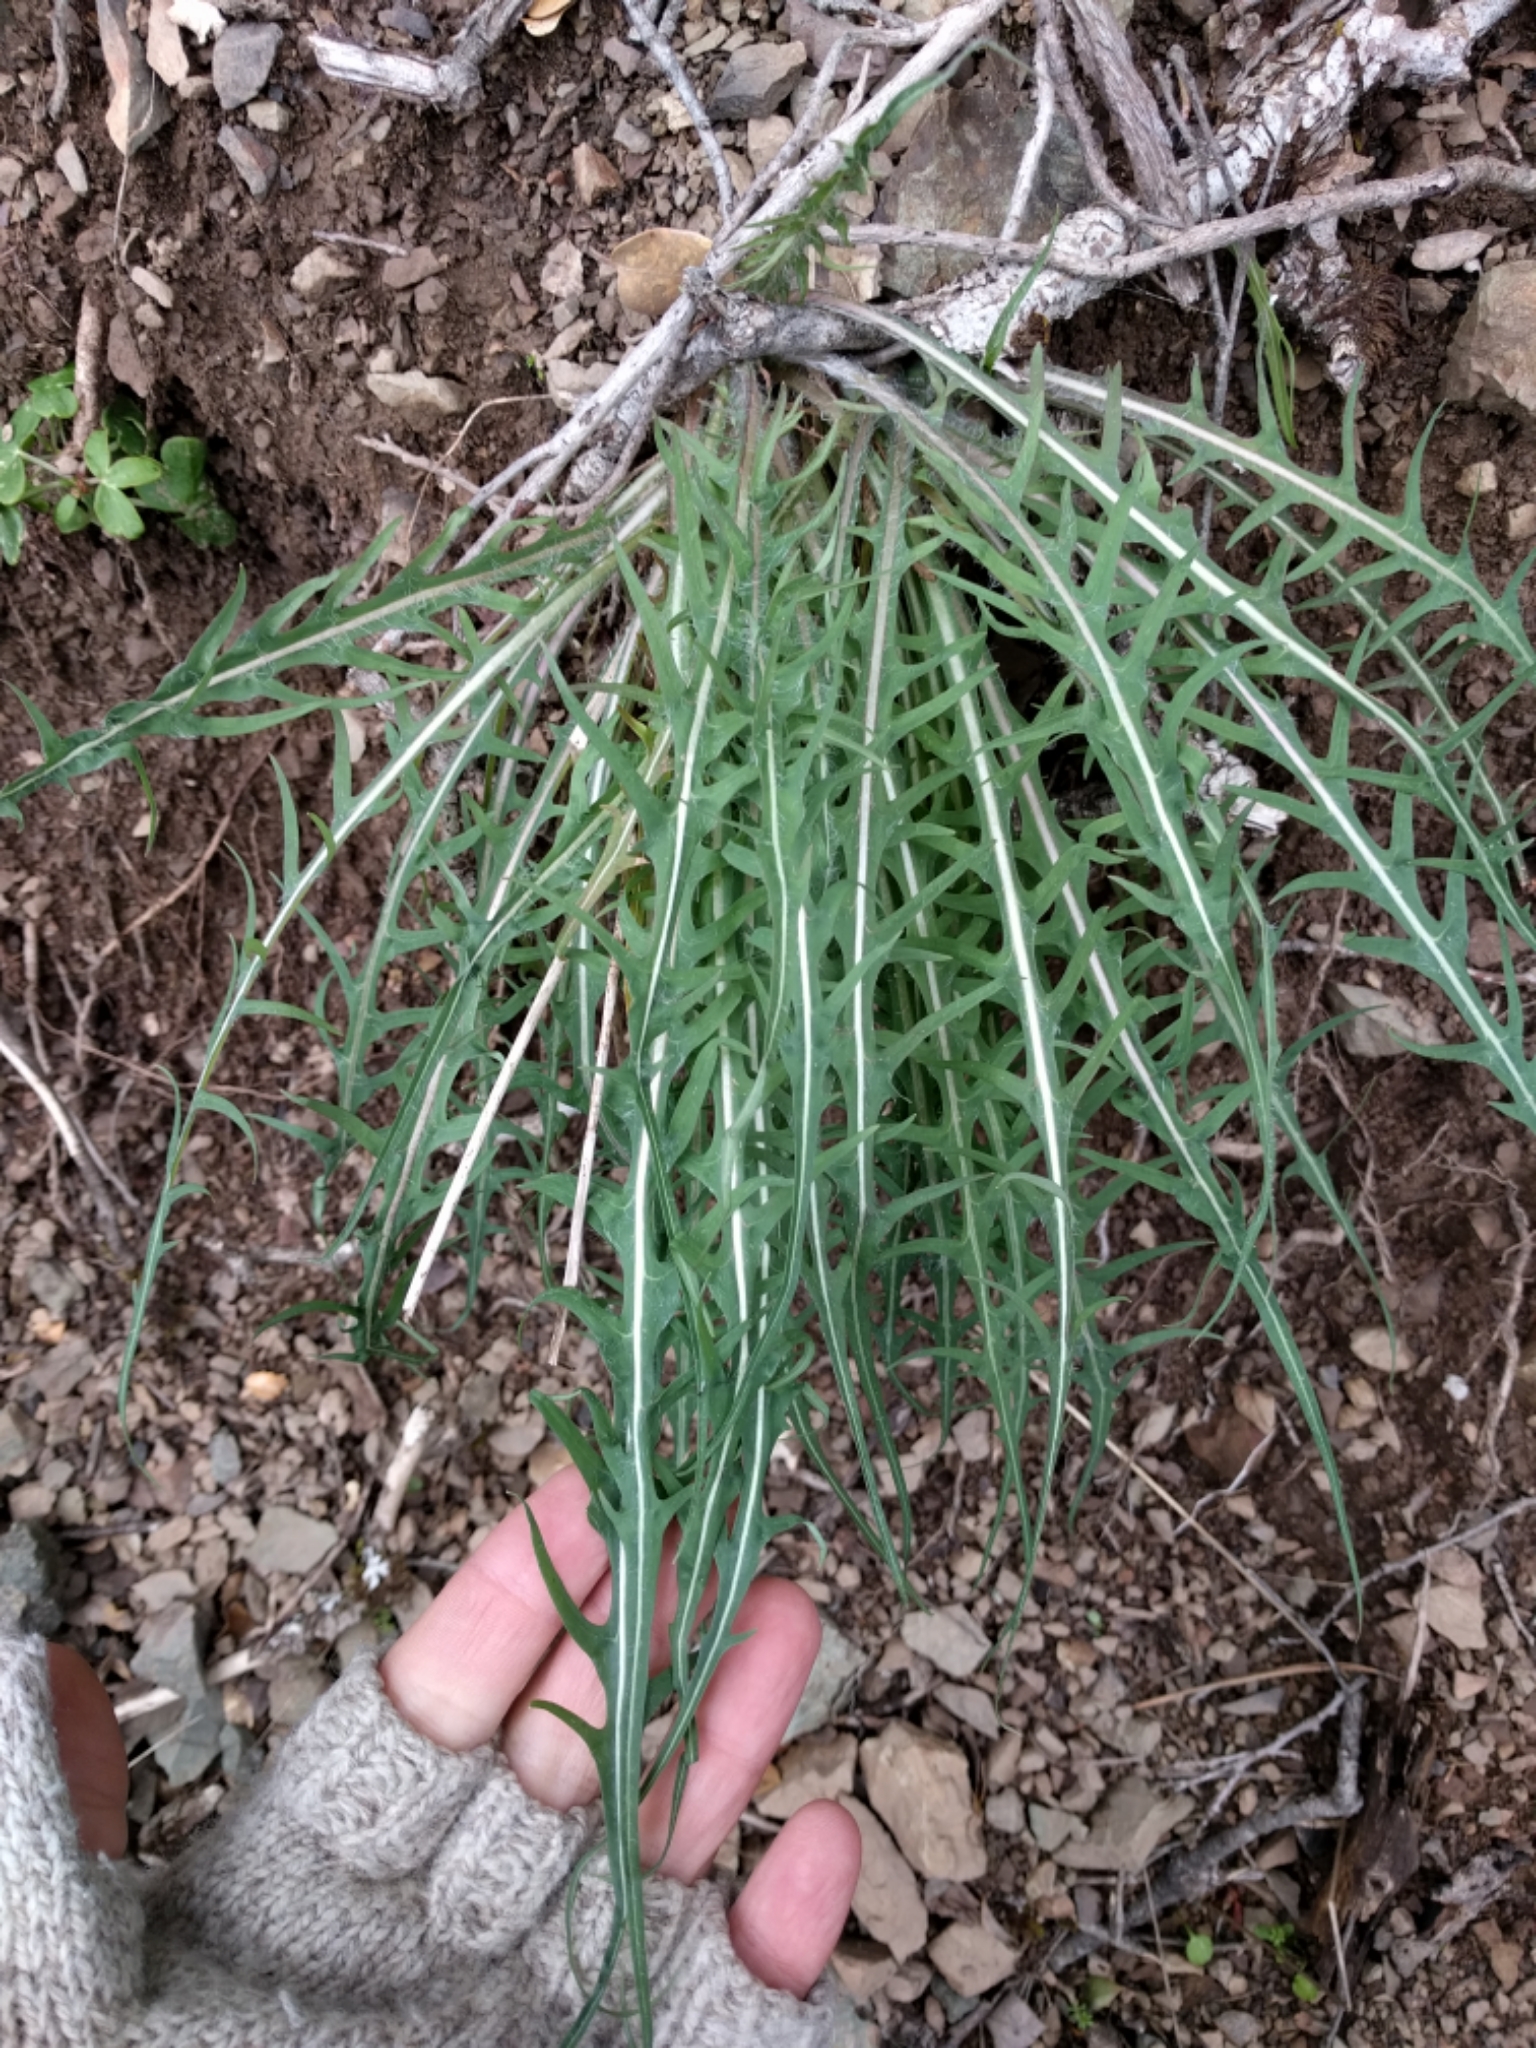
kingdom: Plantae
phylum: Tracheophyta
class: Magnoliopsida
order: Asterales
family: Asteraceae
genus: Agoseris
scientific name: Agoseris retrorsa
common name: Spearleaf agoseris
